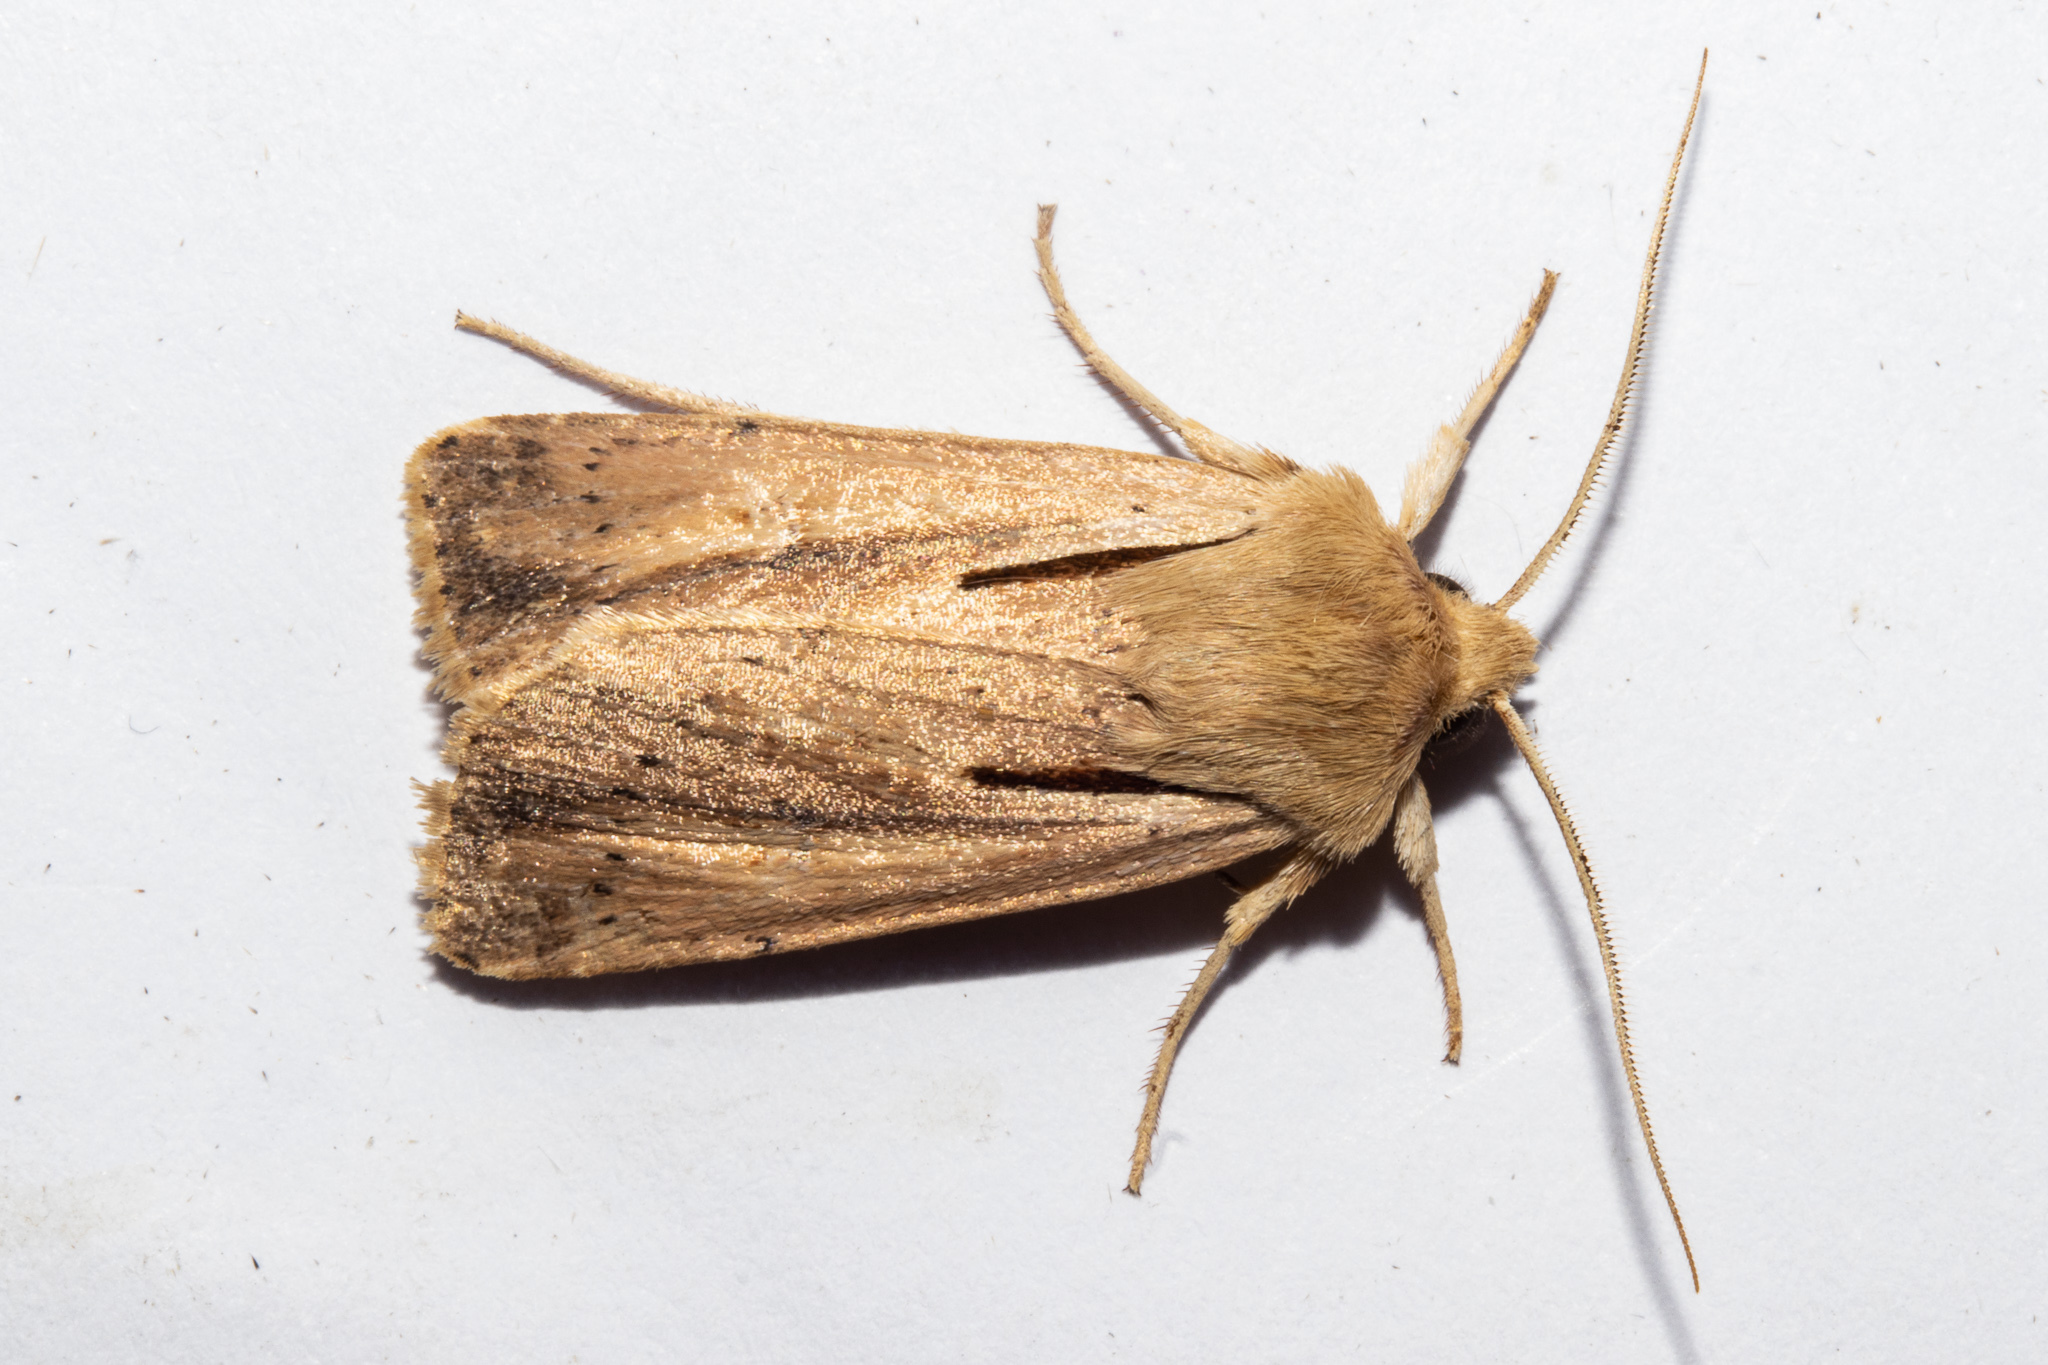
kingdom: Animalia
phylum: Arthropoda
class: Insecta
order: Lepidoptera
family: Noctuidae
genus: Ichneutica
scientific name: Ichneutica propria
